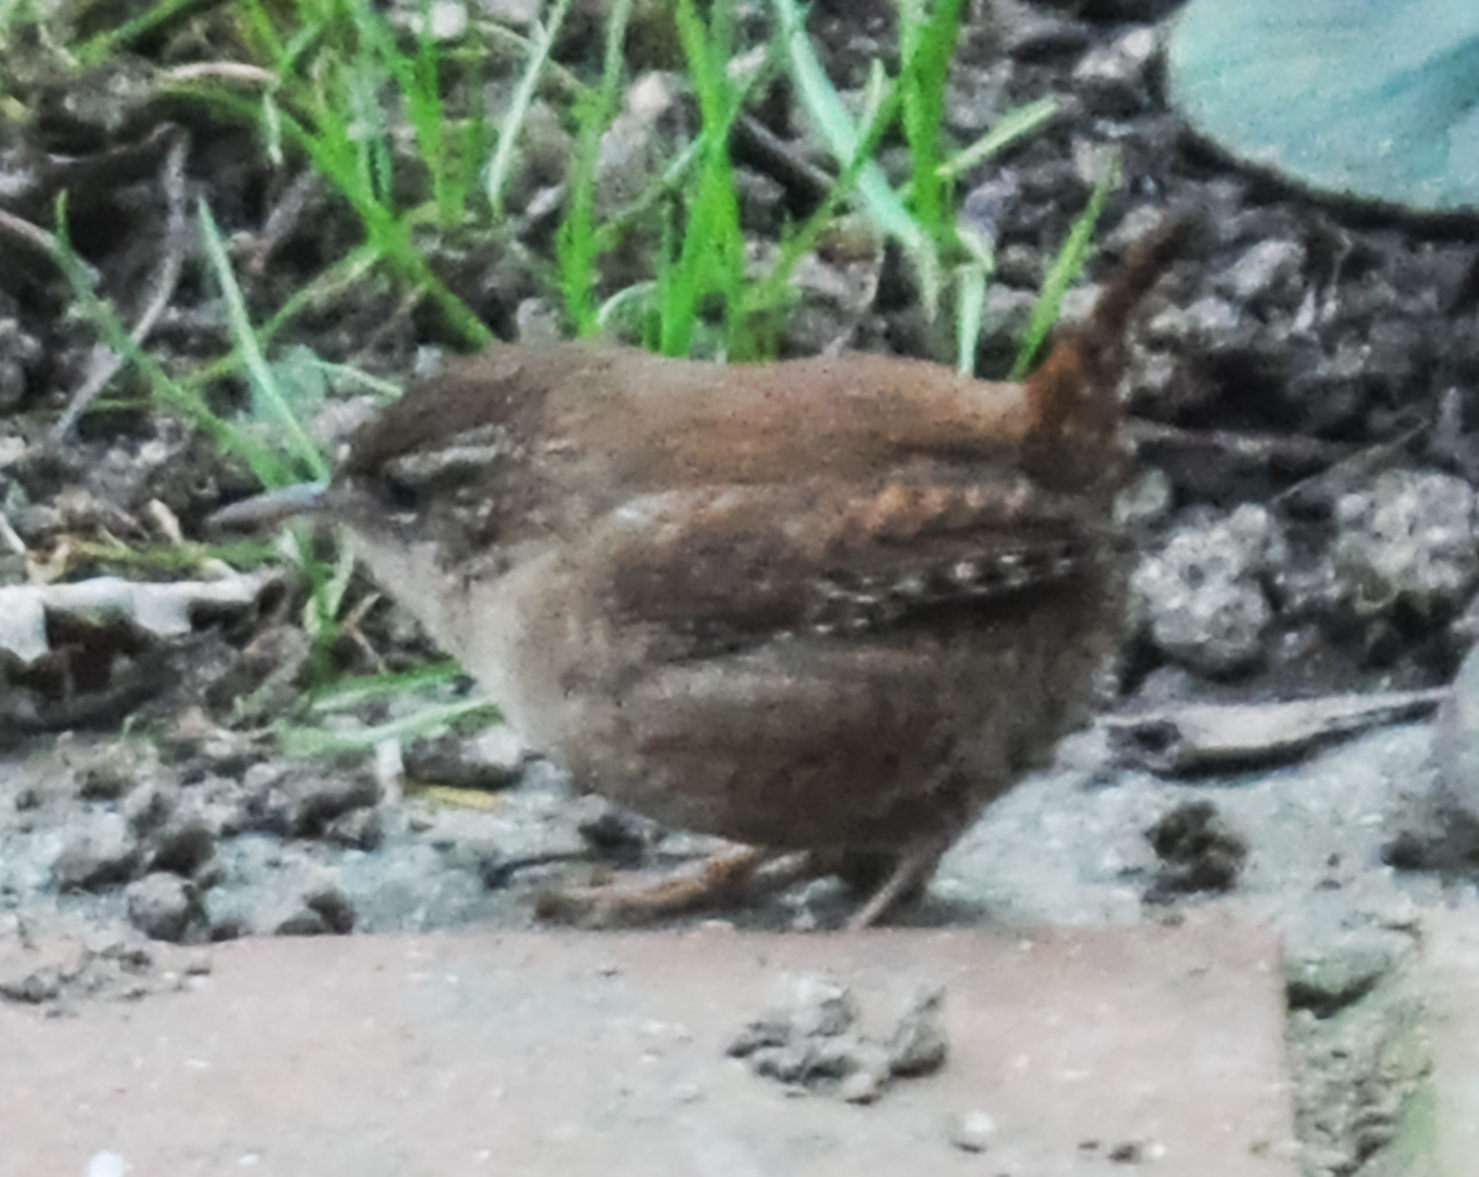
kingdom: Animalia
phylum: Chordata
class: Aves
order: Passeriformes
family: Troglodytidae
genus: Troglodytes
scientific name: Troglodytes troglodytes
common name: Eurasian wren
